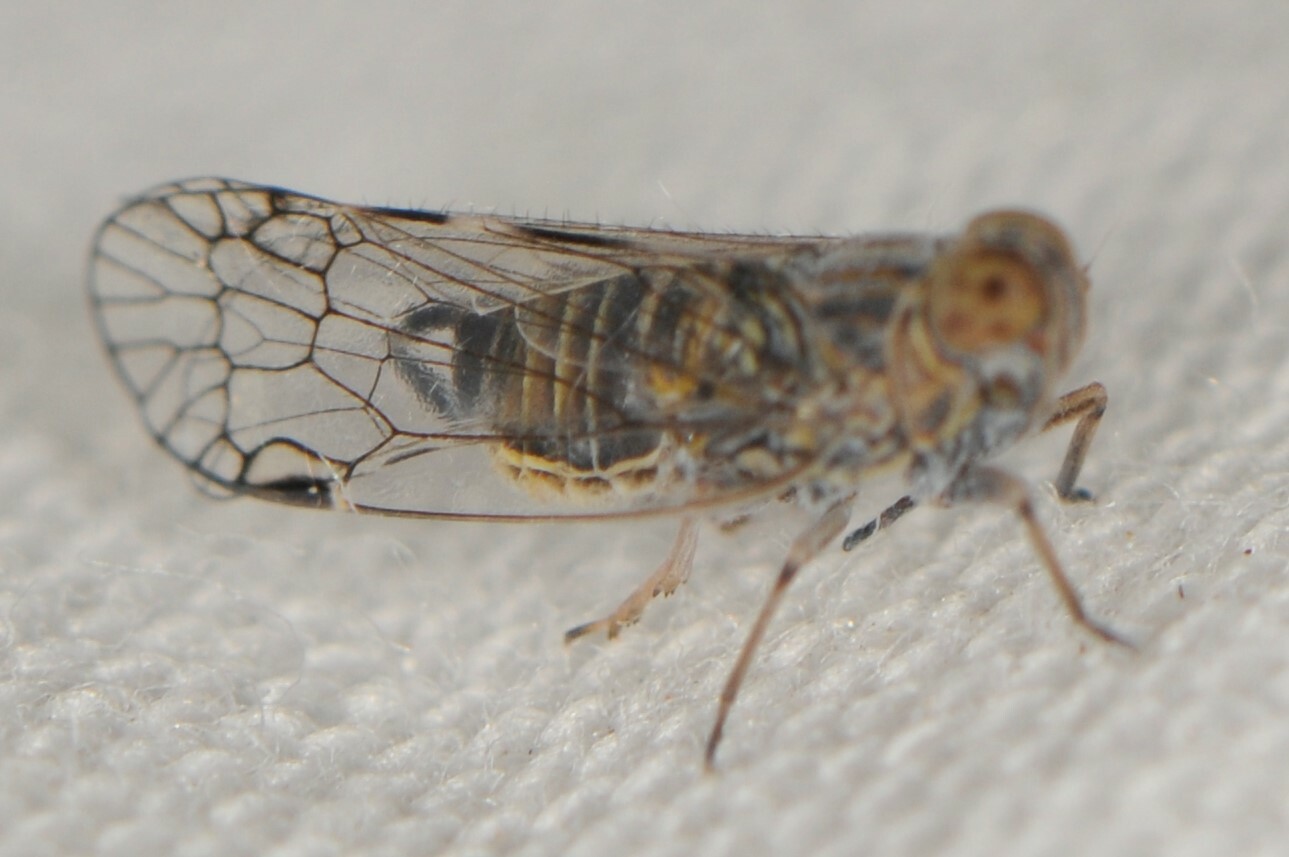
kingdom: Animalia
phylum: Arthropoda
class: Insecta
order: Hemiptera
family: Cixiidae
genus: Oecleus
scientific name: Oecleus
